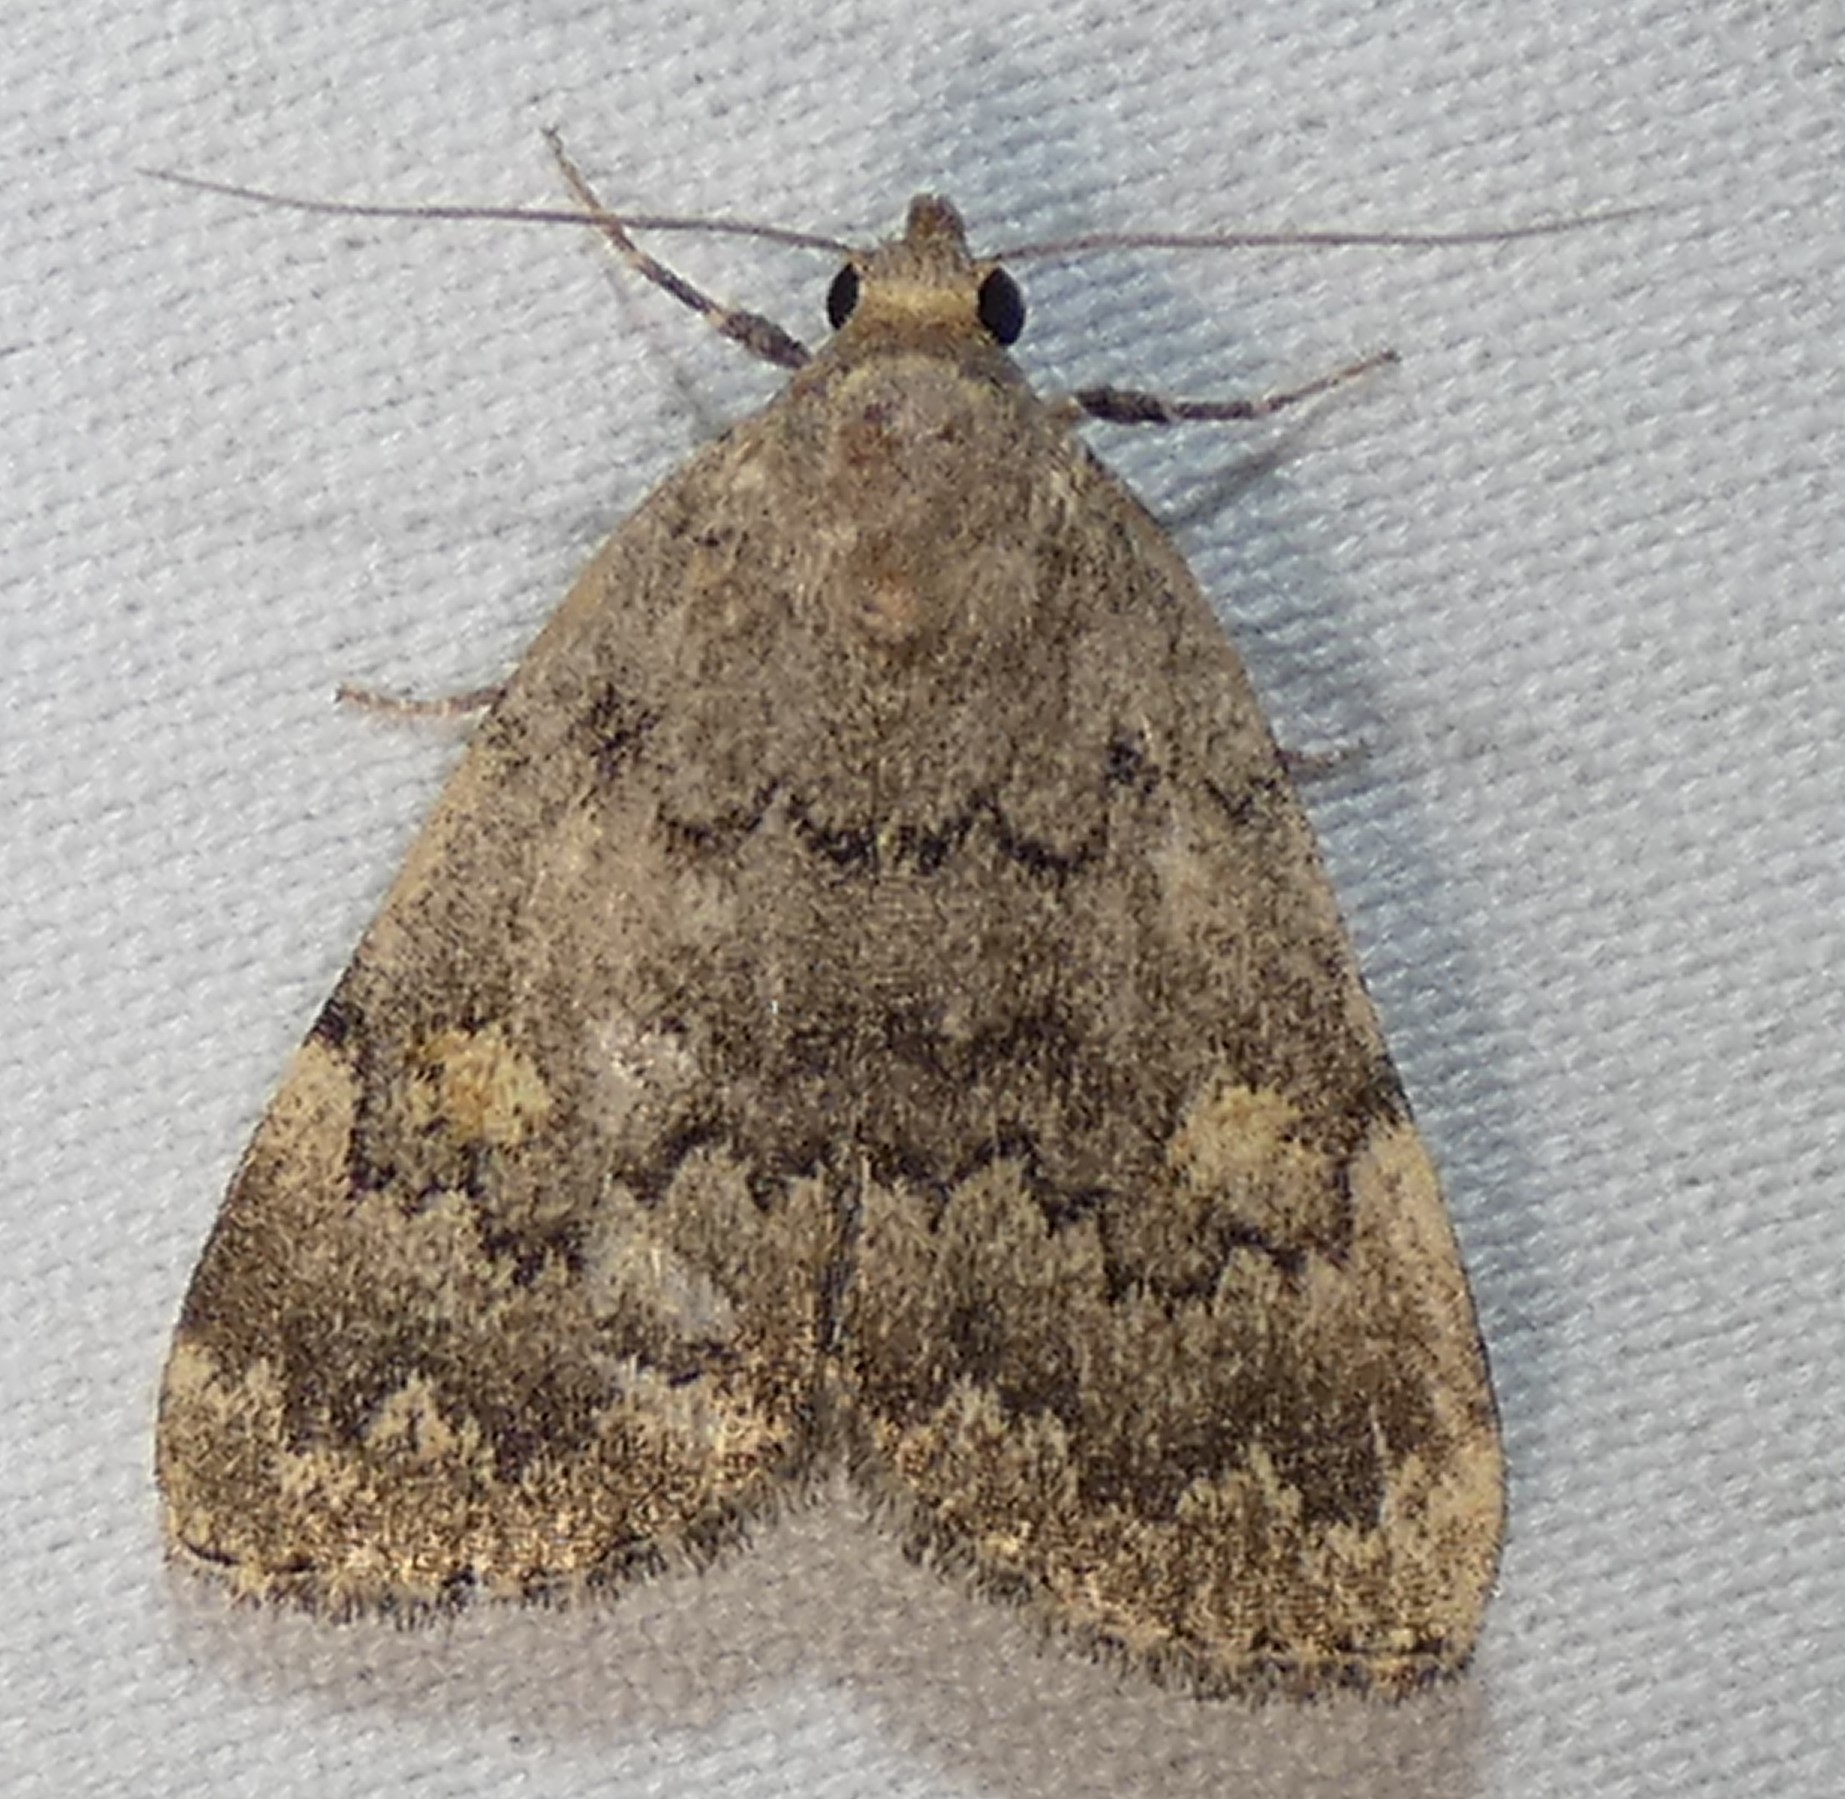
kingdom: Animalia
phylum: Arthropoda
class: Insecta
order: Lepidoptera
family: Erebidae
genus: Idia
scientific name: Idia aemula
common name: Common idia moth
